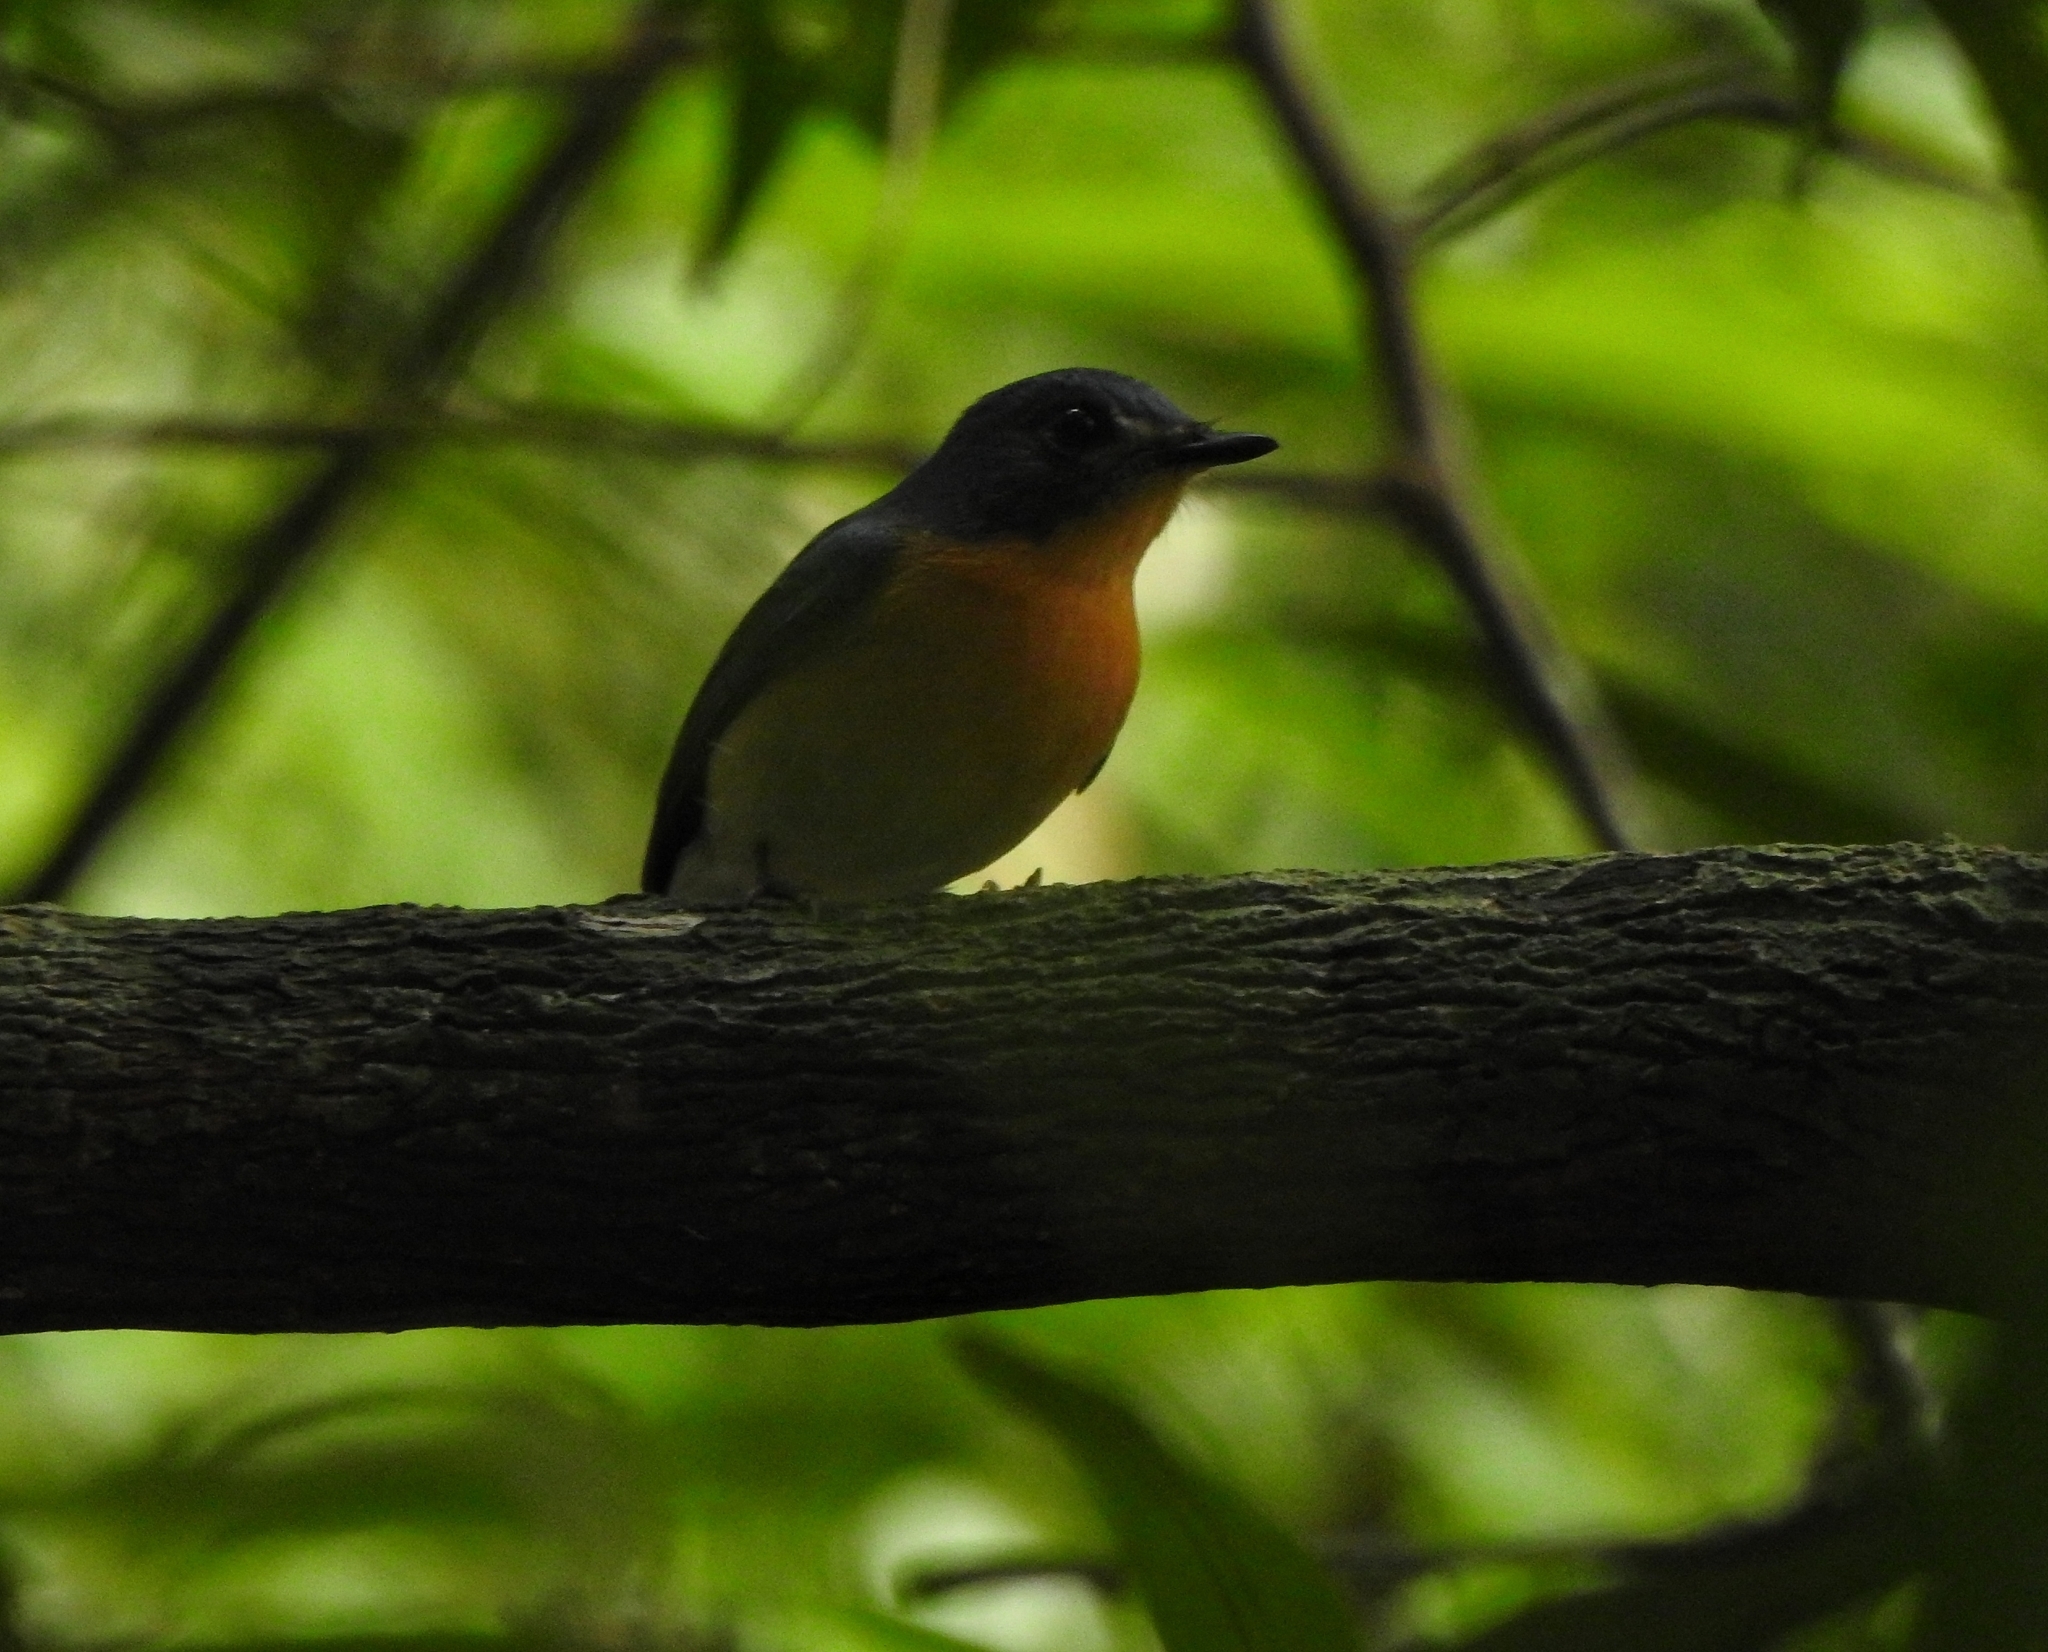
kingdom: Animalia
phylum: Chordata
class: Aves
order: Passeriformes
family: Muscicapidae
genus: Cyornis
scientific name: Cyornis tickelliae
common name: Tickell's blue flycatcher
